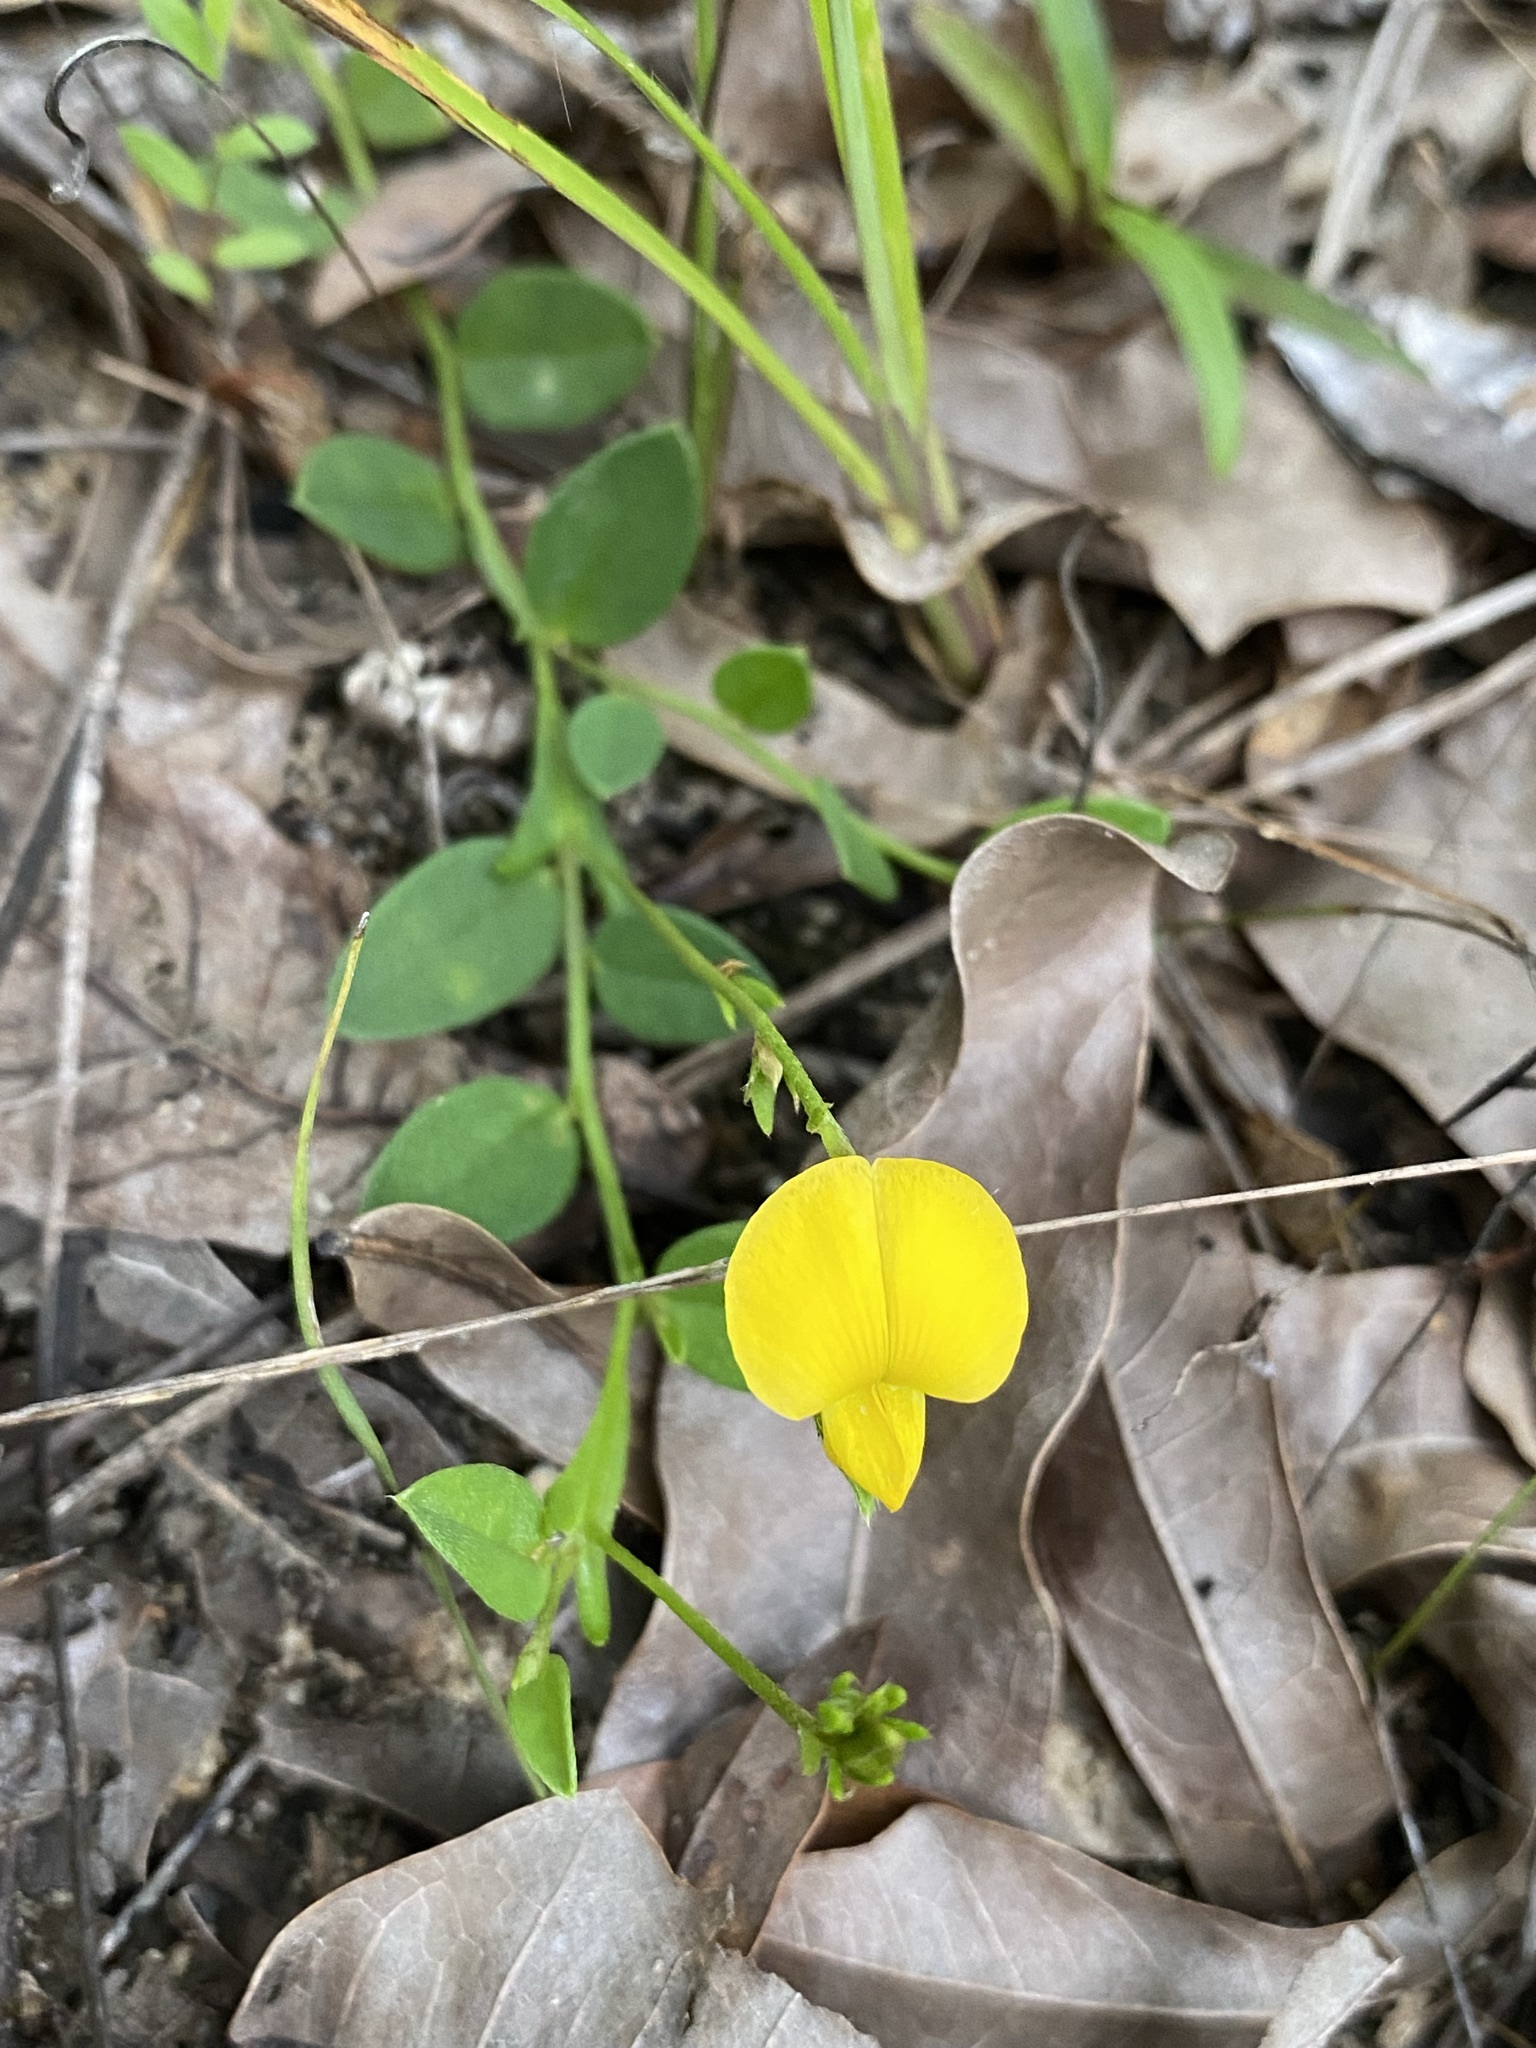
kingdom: Plantae
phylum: Tracheophyta
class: Magnoliopsida
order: Fabales
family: Fabaceae
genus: Crotalaria
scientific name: Crotalaria rotundifolia
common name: Prostrate rattlebox
